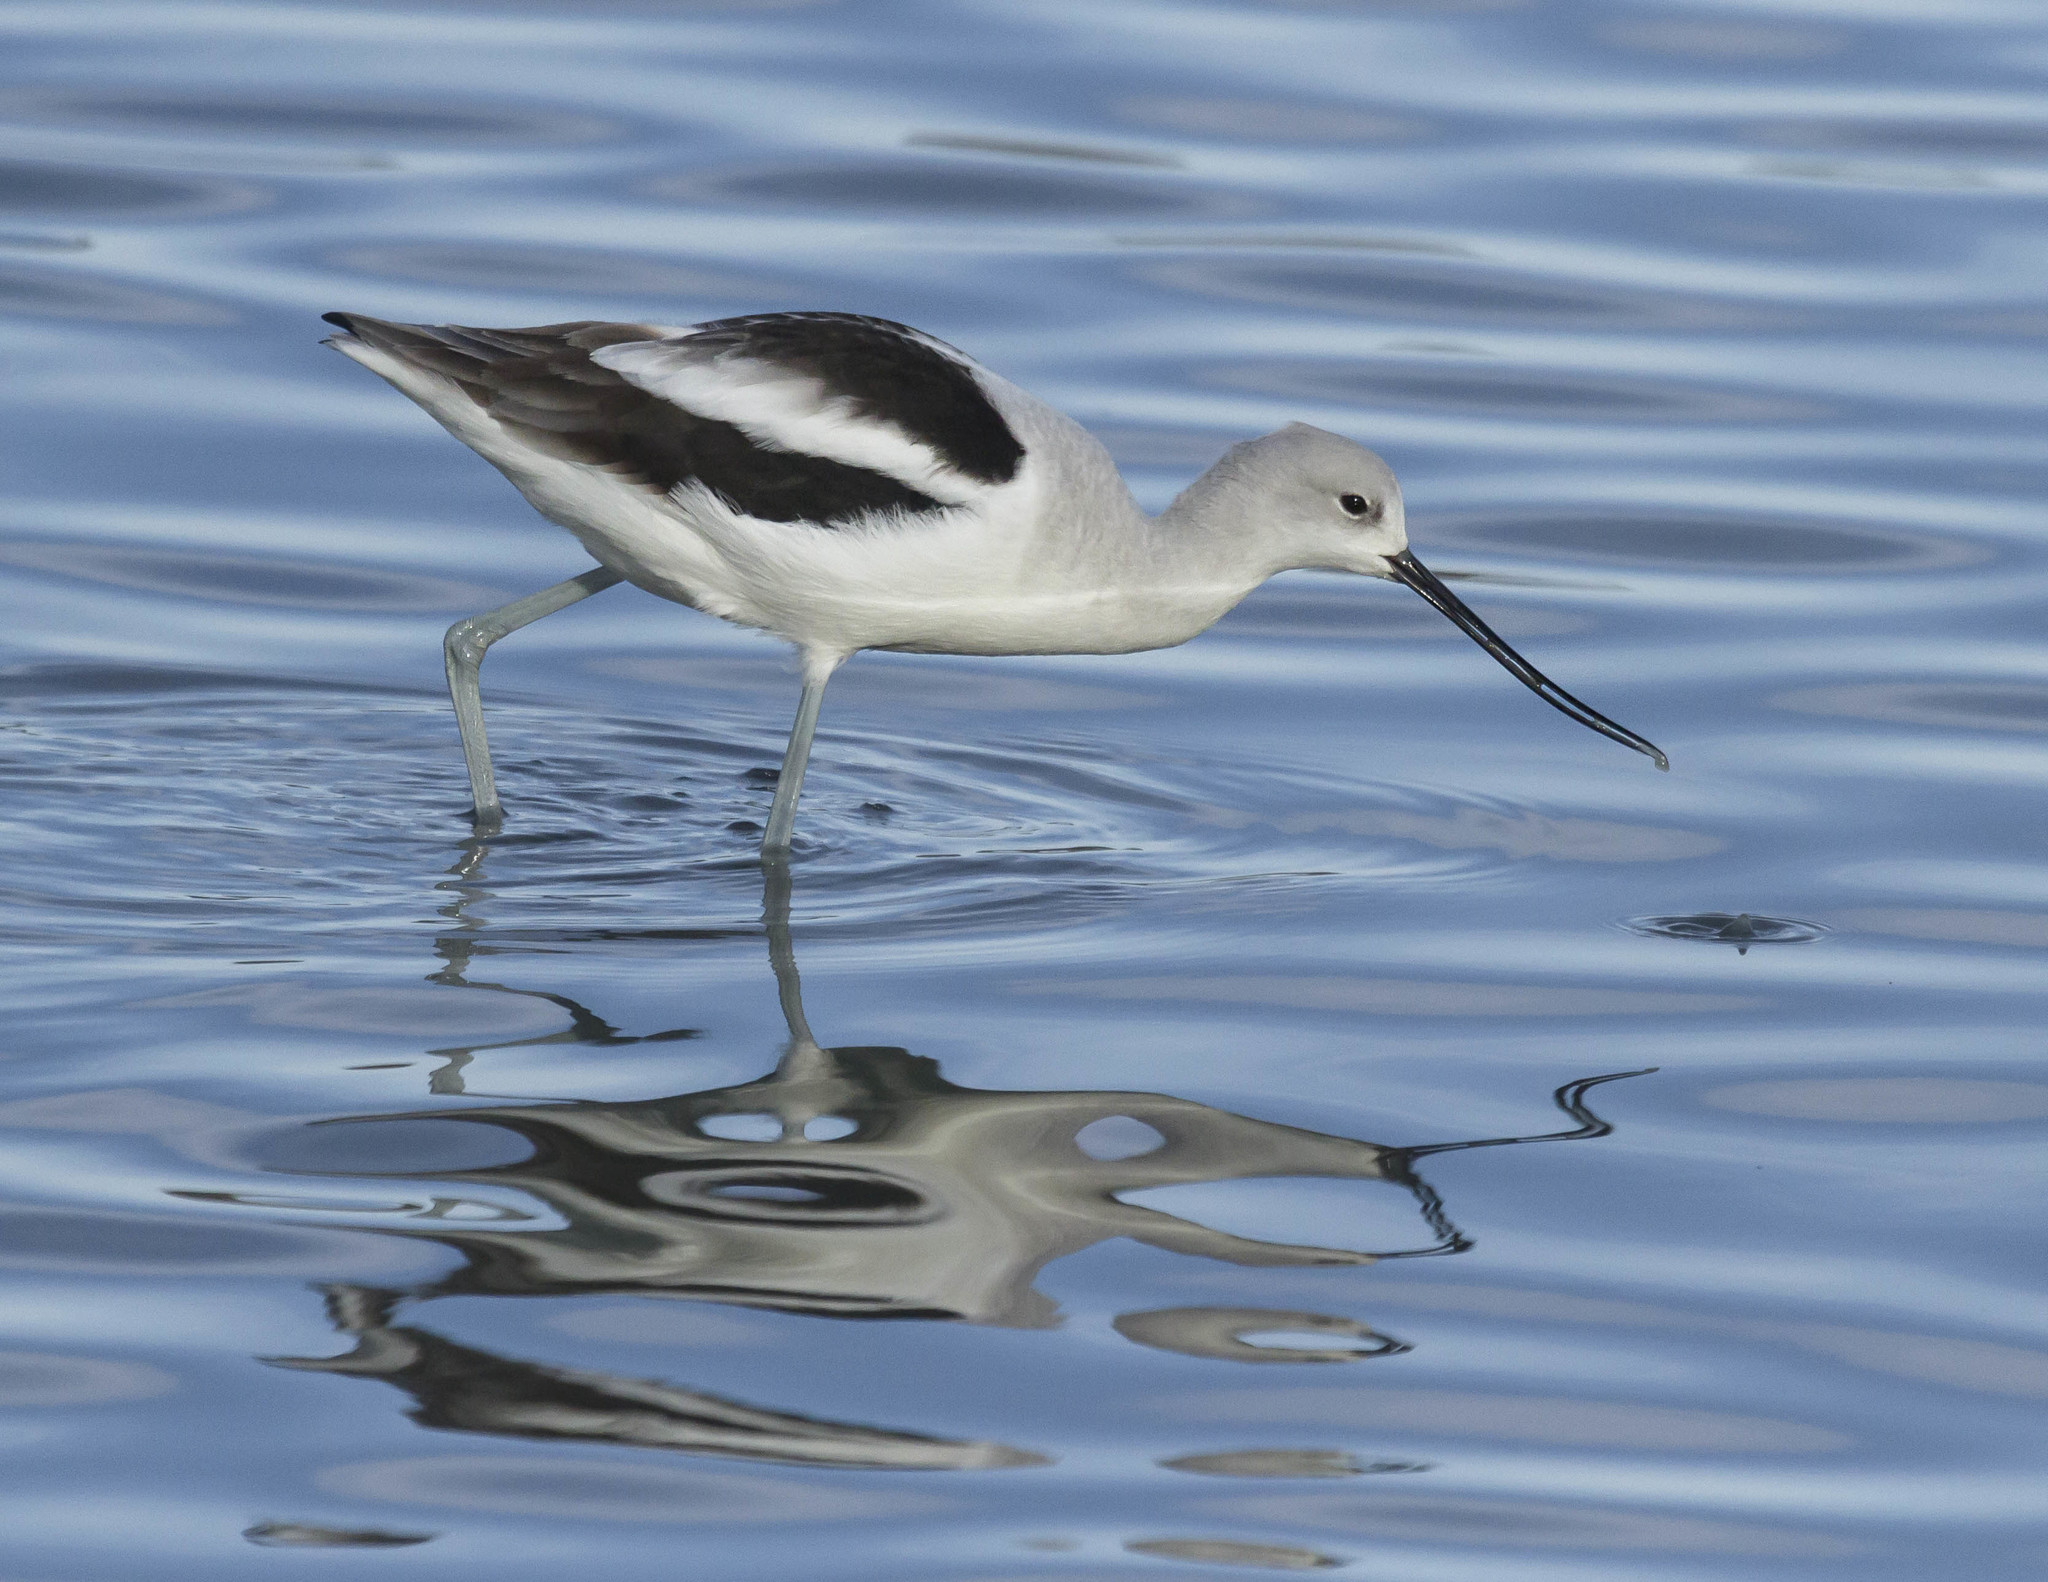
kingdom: Animalia
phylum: Chordata
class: Aves
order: Charadriiformes
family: Recurvirostridae
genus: Recurvirostra
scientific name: Recurvirostra americana
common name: American avocet
